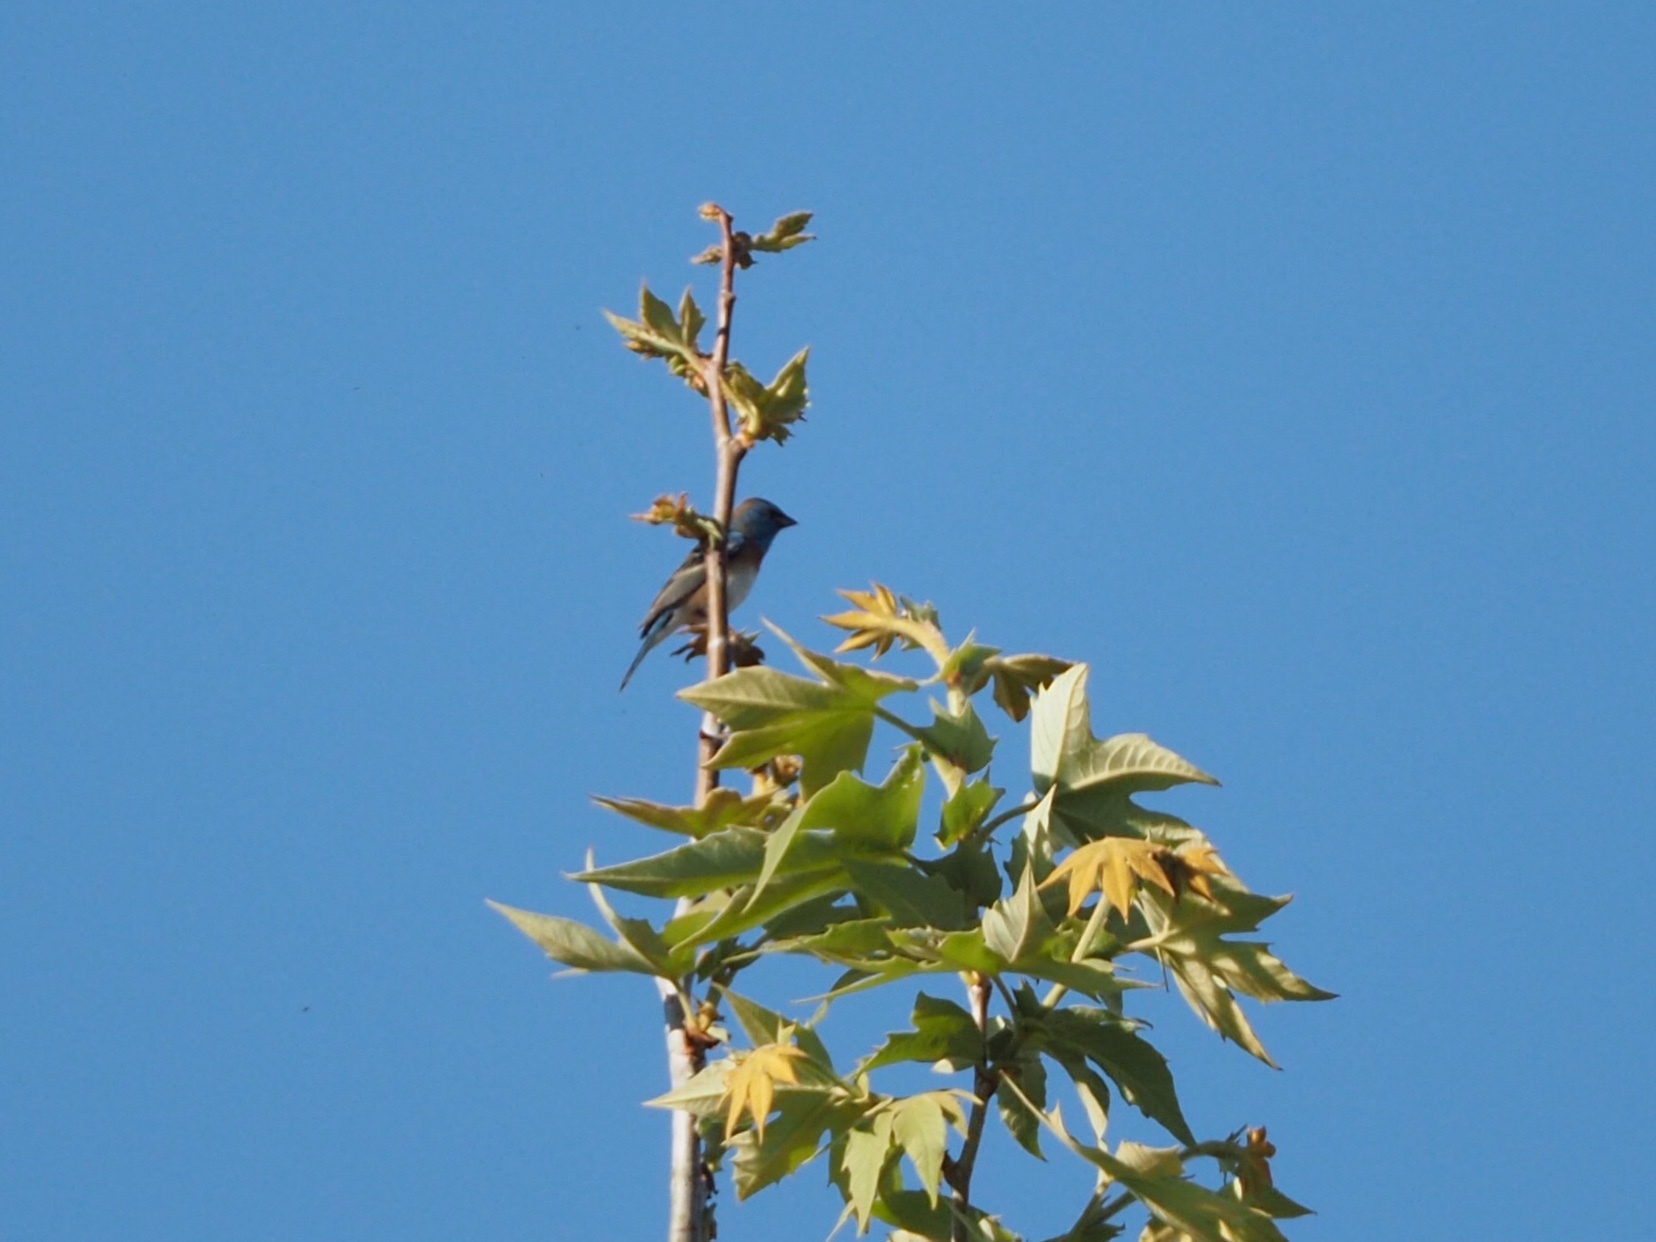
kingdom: Animalia
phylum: Chordata
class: Aves
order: Passeriformes
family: Cardinalidae
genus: Passerina
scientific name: Passerina amoena
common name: Lazuli bunting
